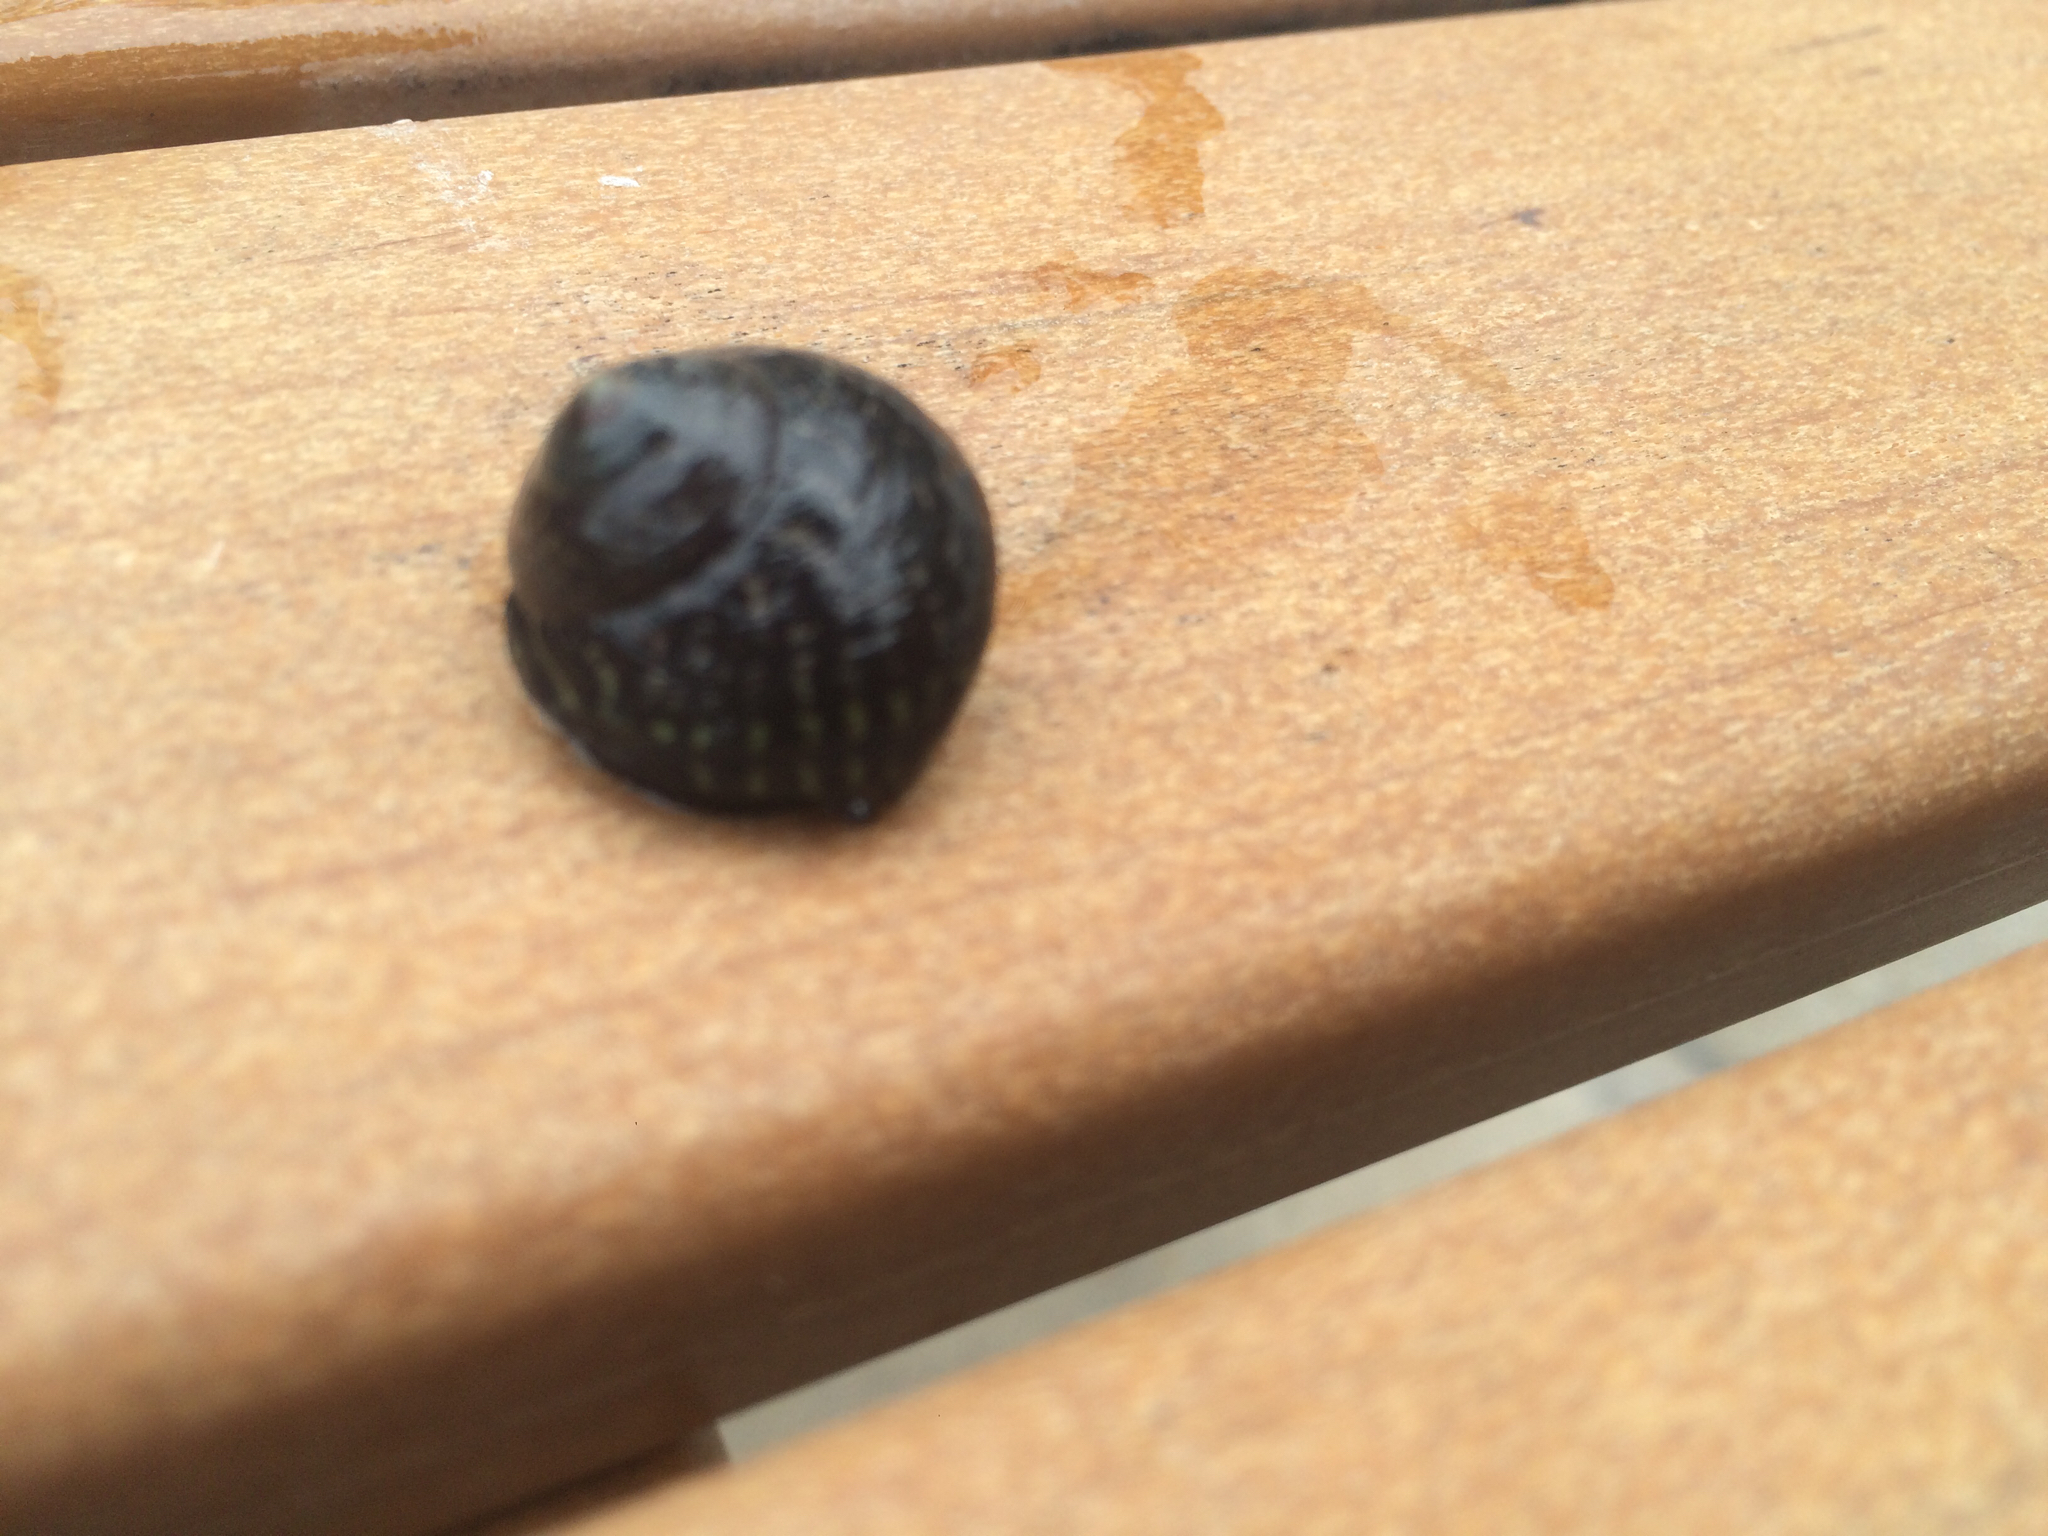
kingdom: Animalia
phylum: Mollusca
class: Gastropoda
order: Trochida
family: Tegulidae
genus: Tegula
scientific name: Tegula gallina
